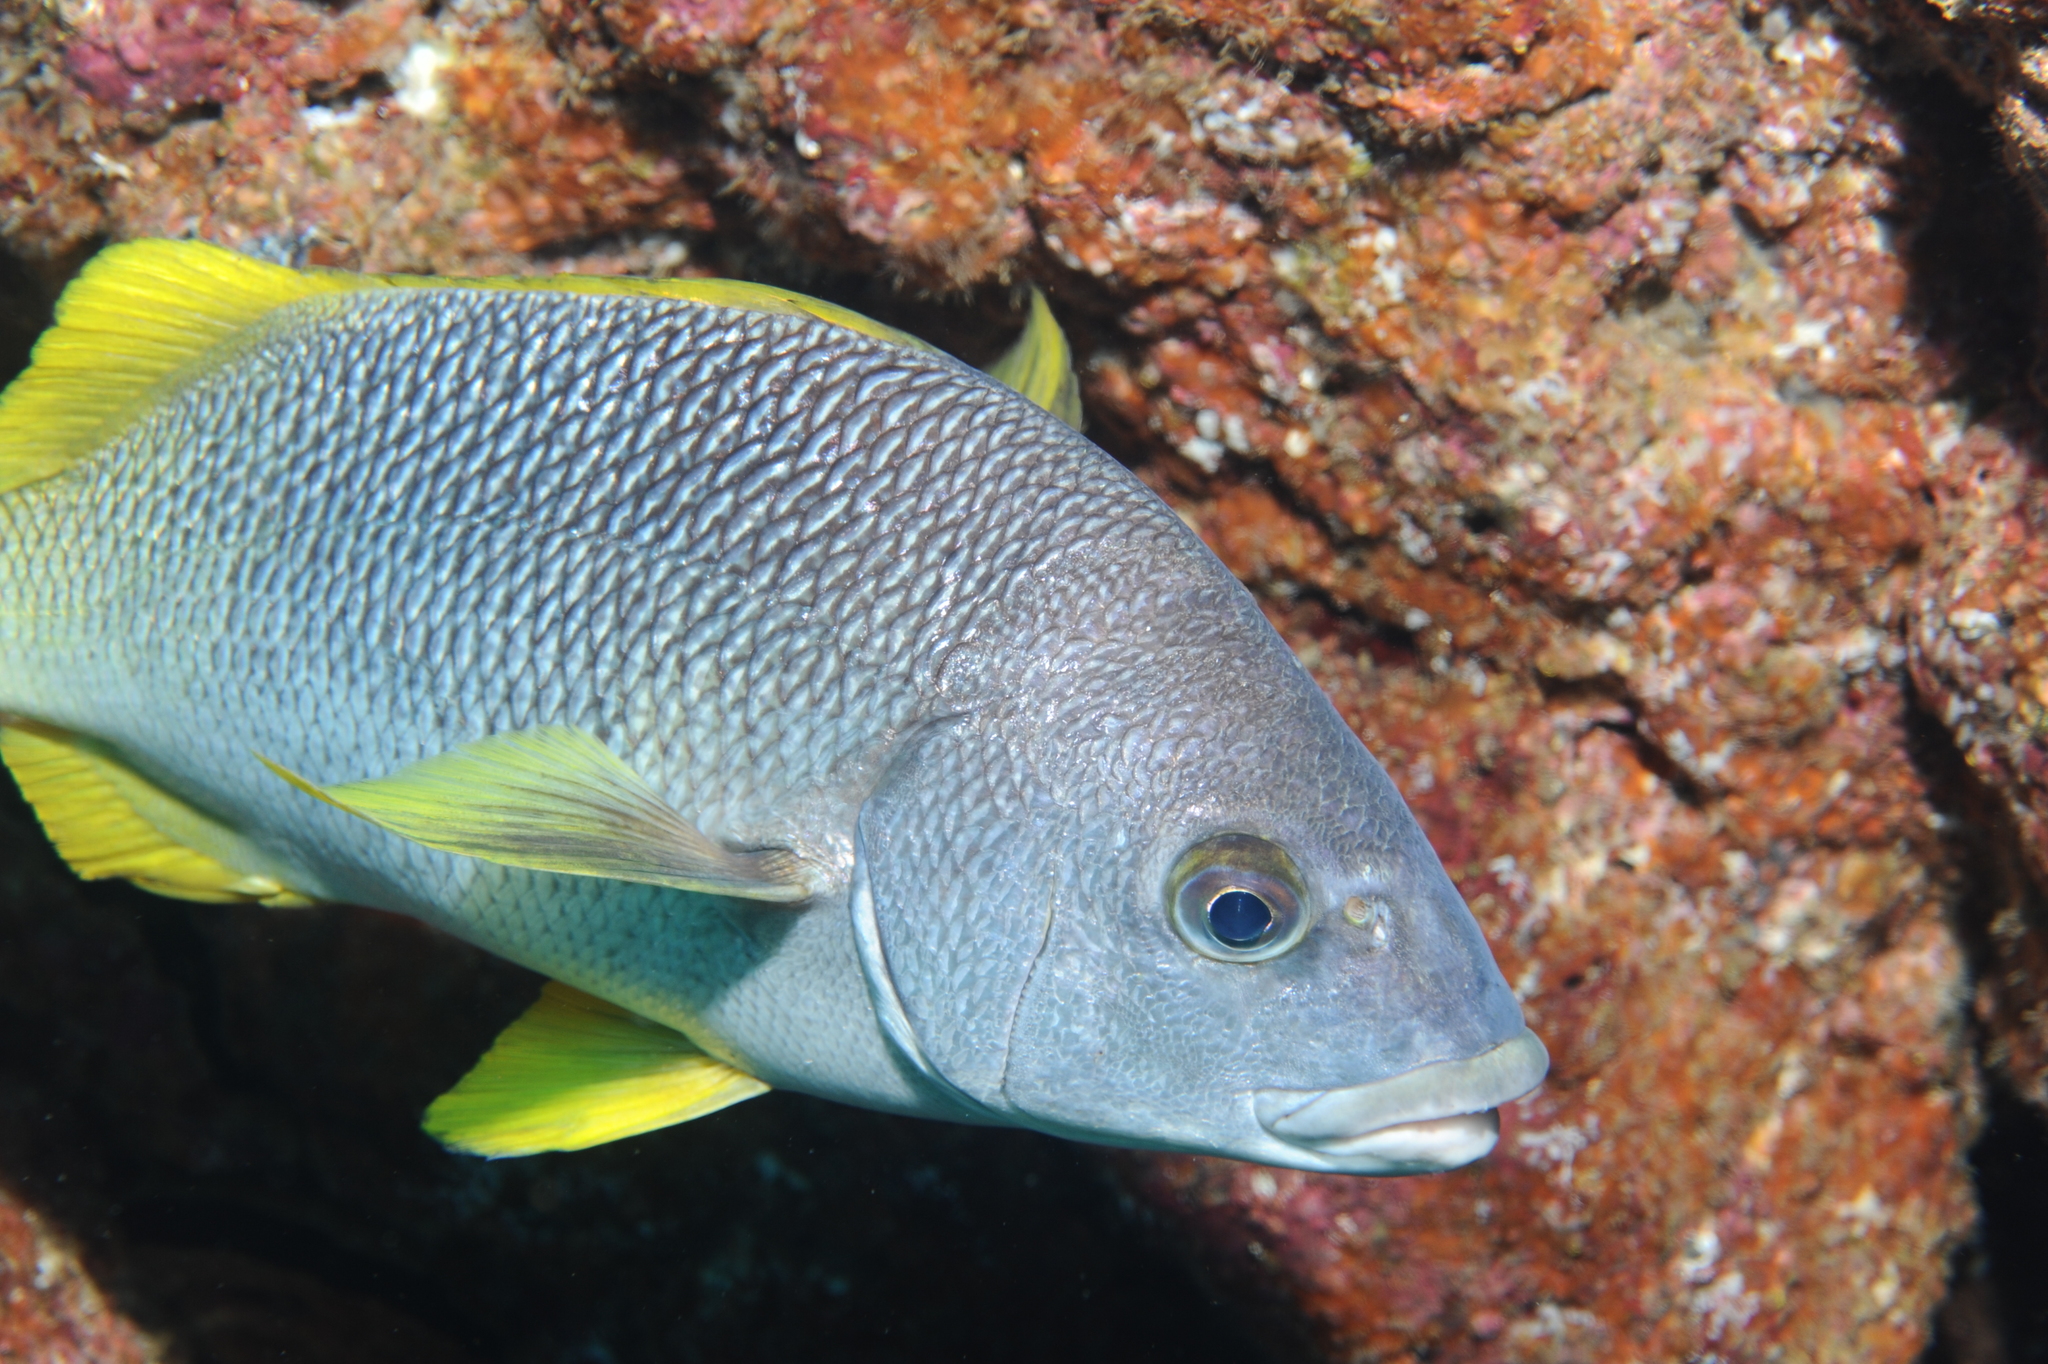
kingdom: Animalia
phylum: Chordata
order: Perciformes
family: Haemulidae
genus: Anisotremus
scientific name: Anisotremus espinozai
